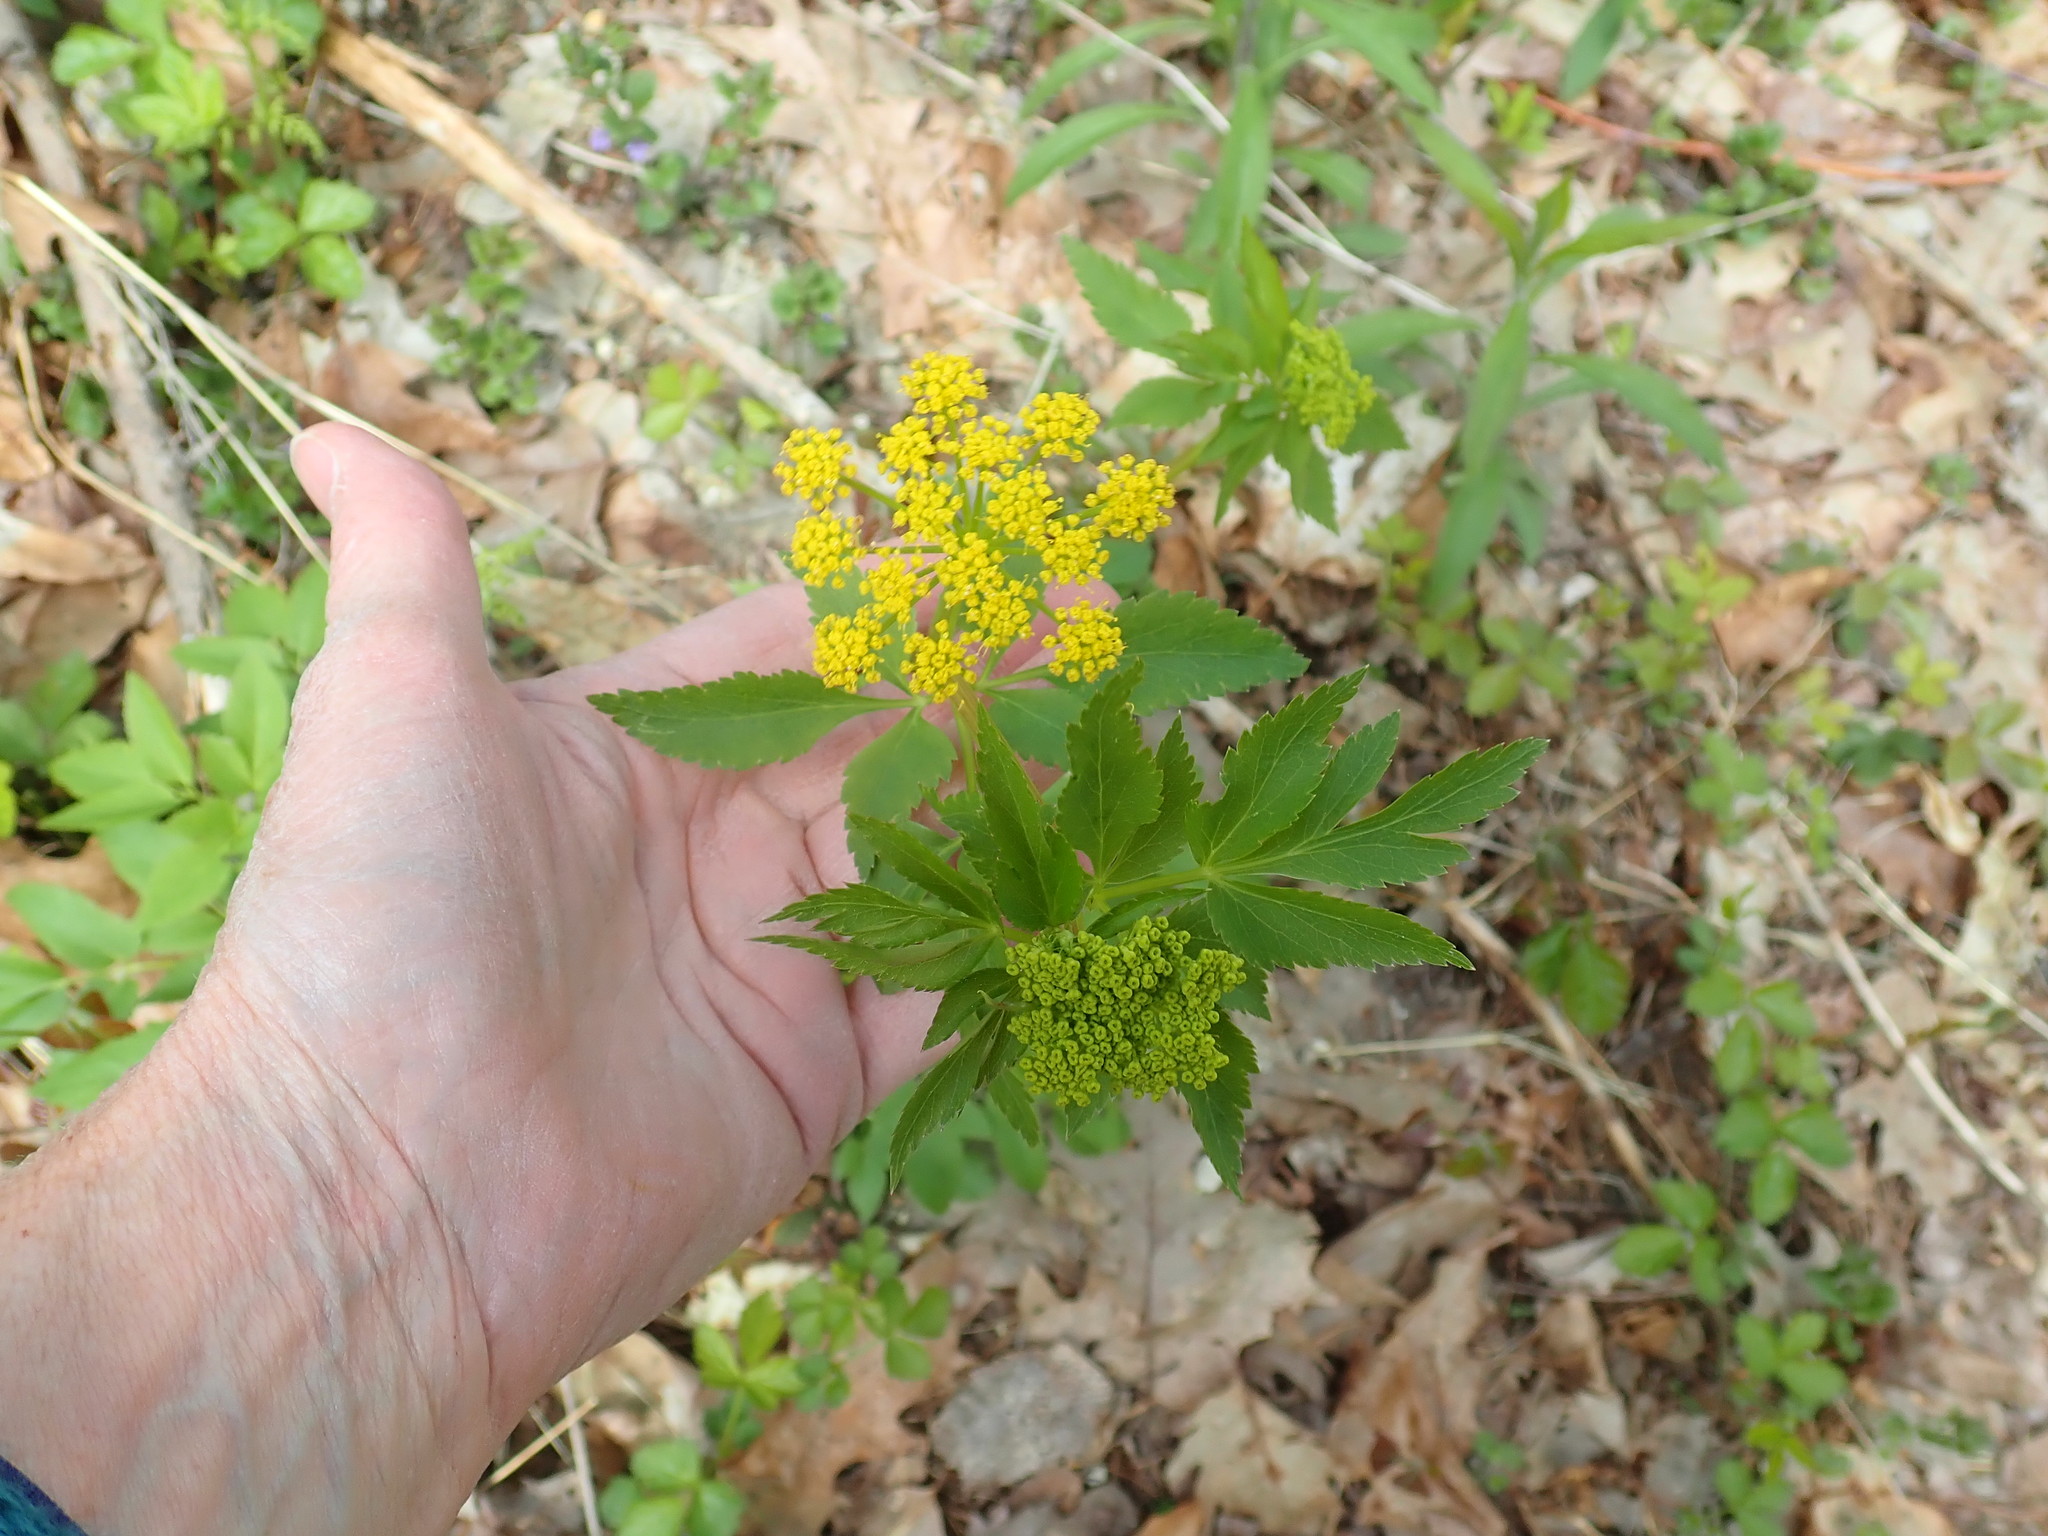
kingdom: Plantae
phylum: Tracheophyta
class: Magnoliopsida
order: Apiales
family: Apiaceae
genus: Zizia
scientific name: Zizia aurea
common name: Golden alexanders
